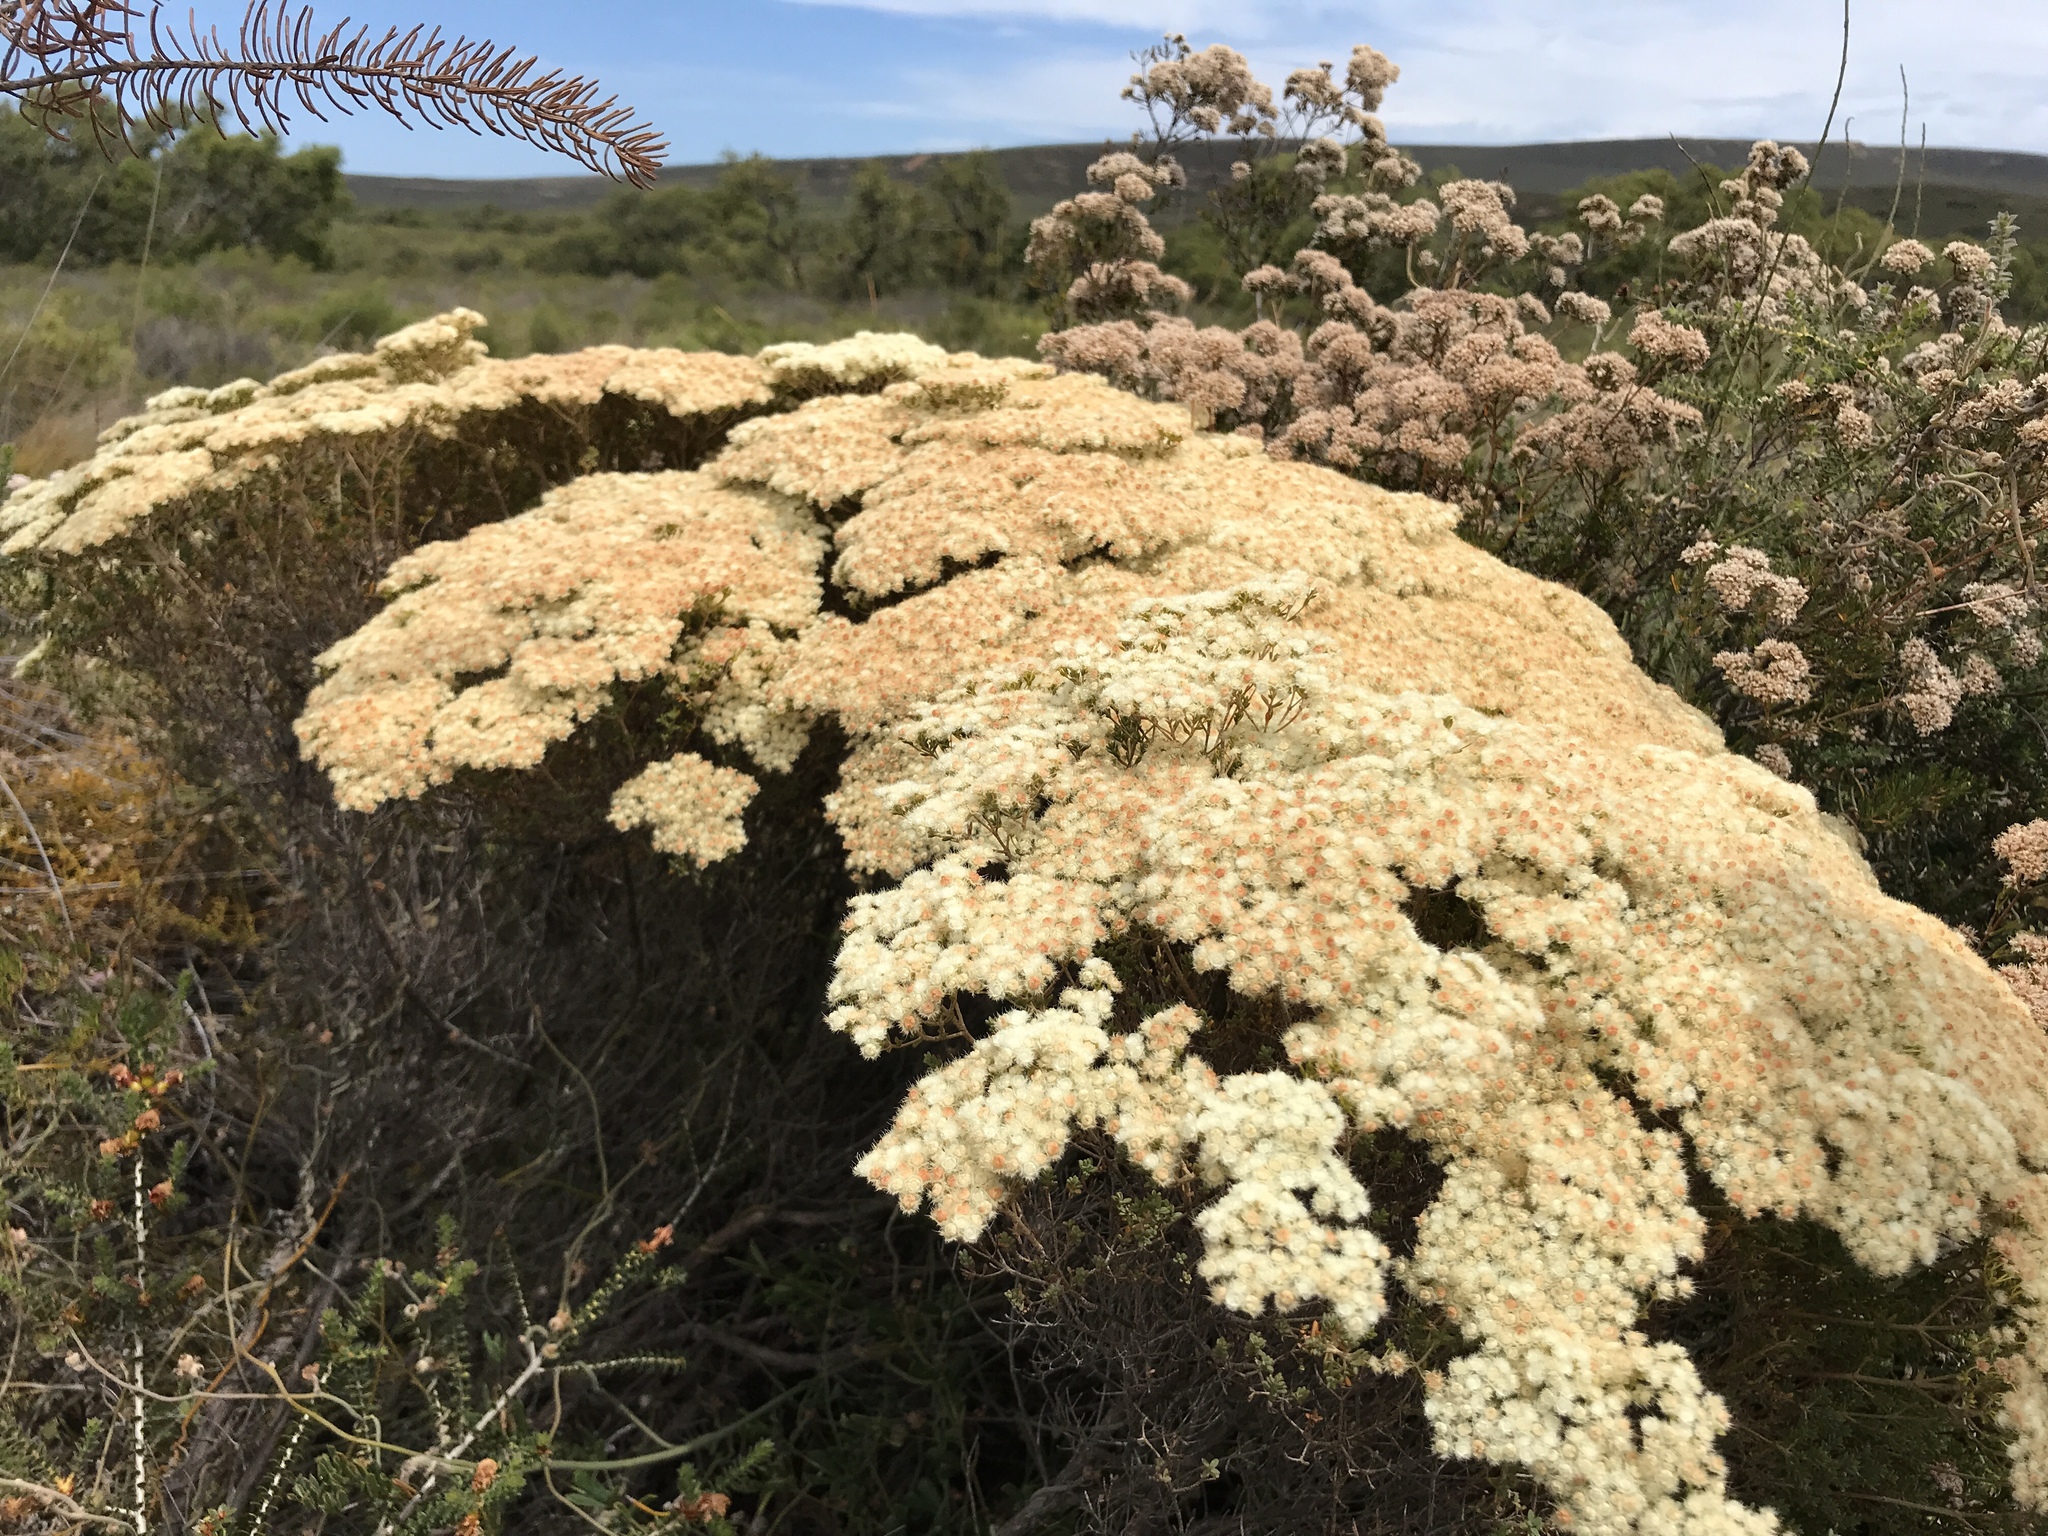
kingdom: Plantae
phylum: Tracheophyta
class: Magnoliopsida
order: Myrtales
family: Myrtaceae
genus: Verticordia
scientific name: Verticordia eriocephala
